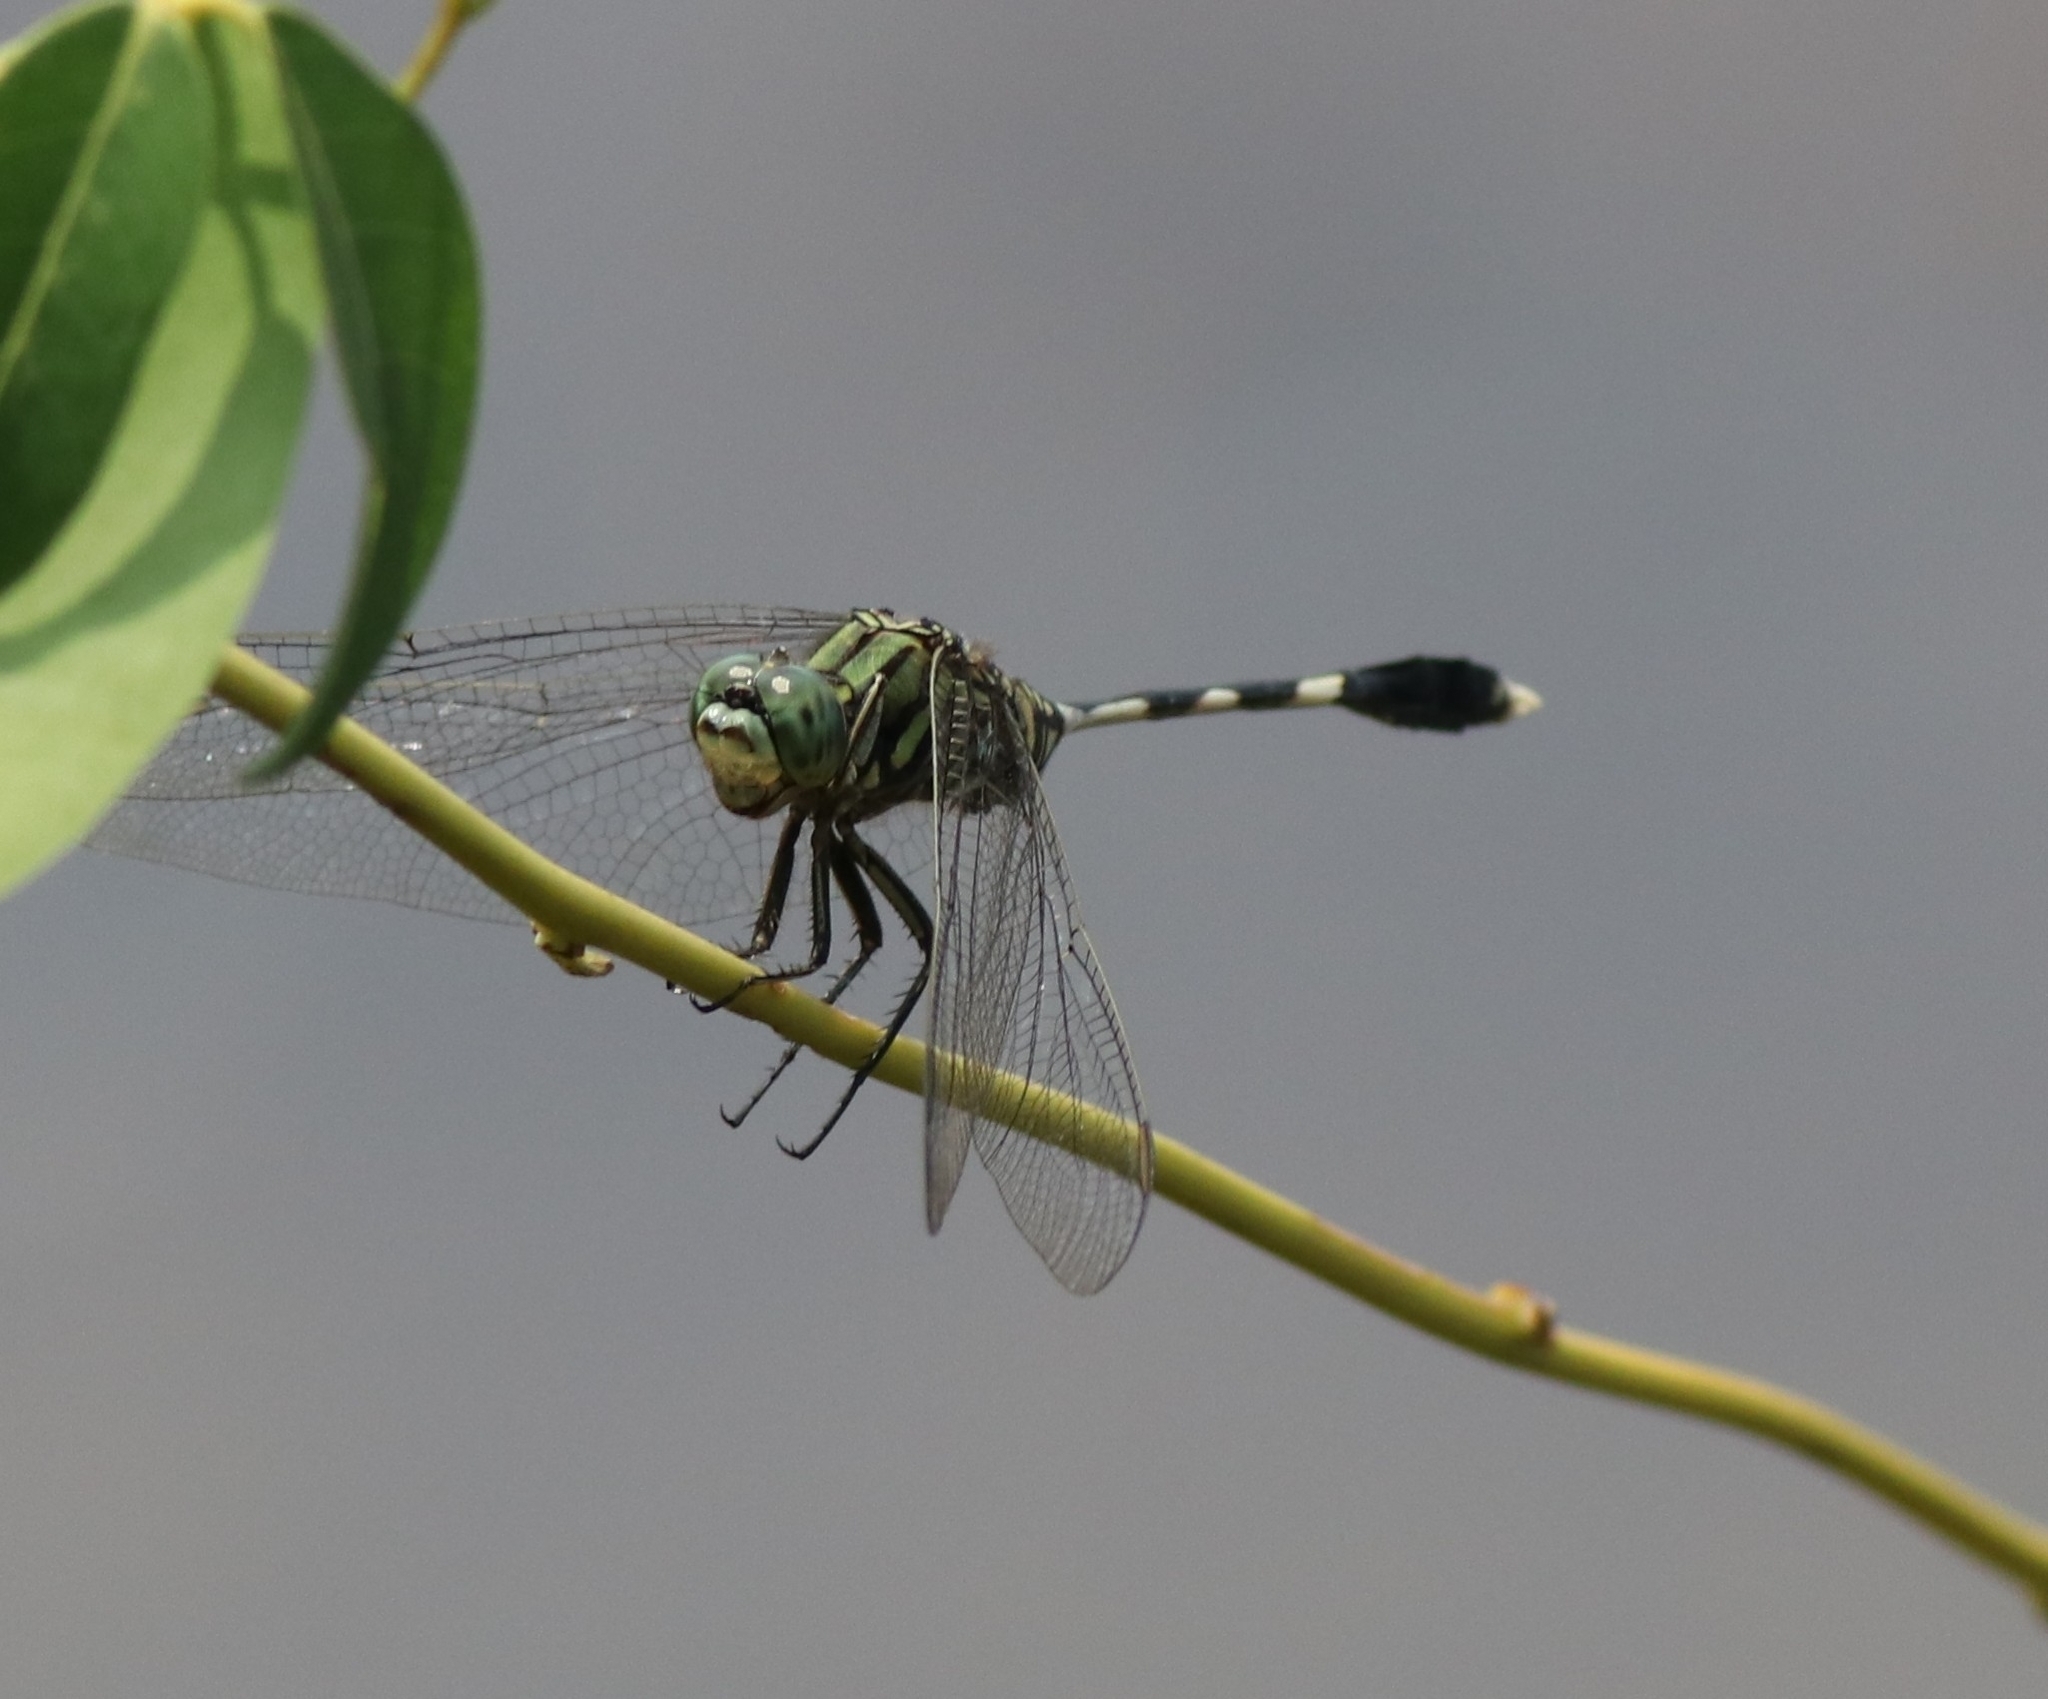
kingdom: Animalia
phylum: Arthropoda
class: Insecta
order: Odonata
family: Libellulidae
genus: Orthetrum
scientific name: Orthetrum sabina
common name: Slender skimmer
